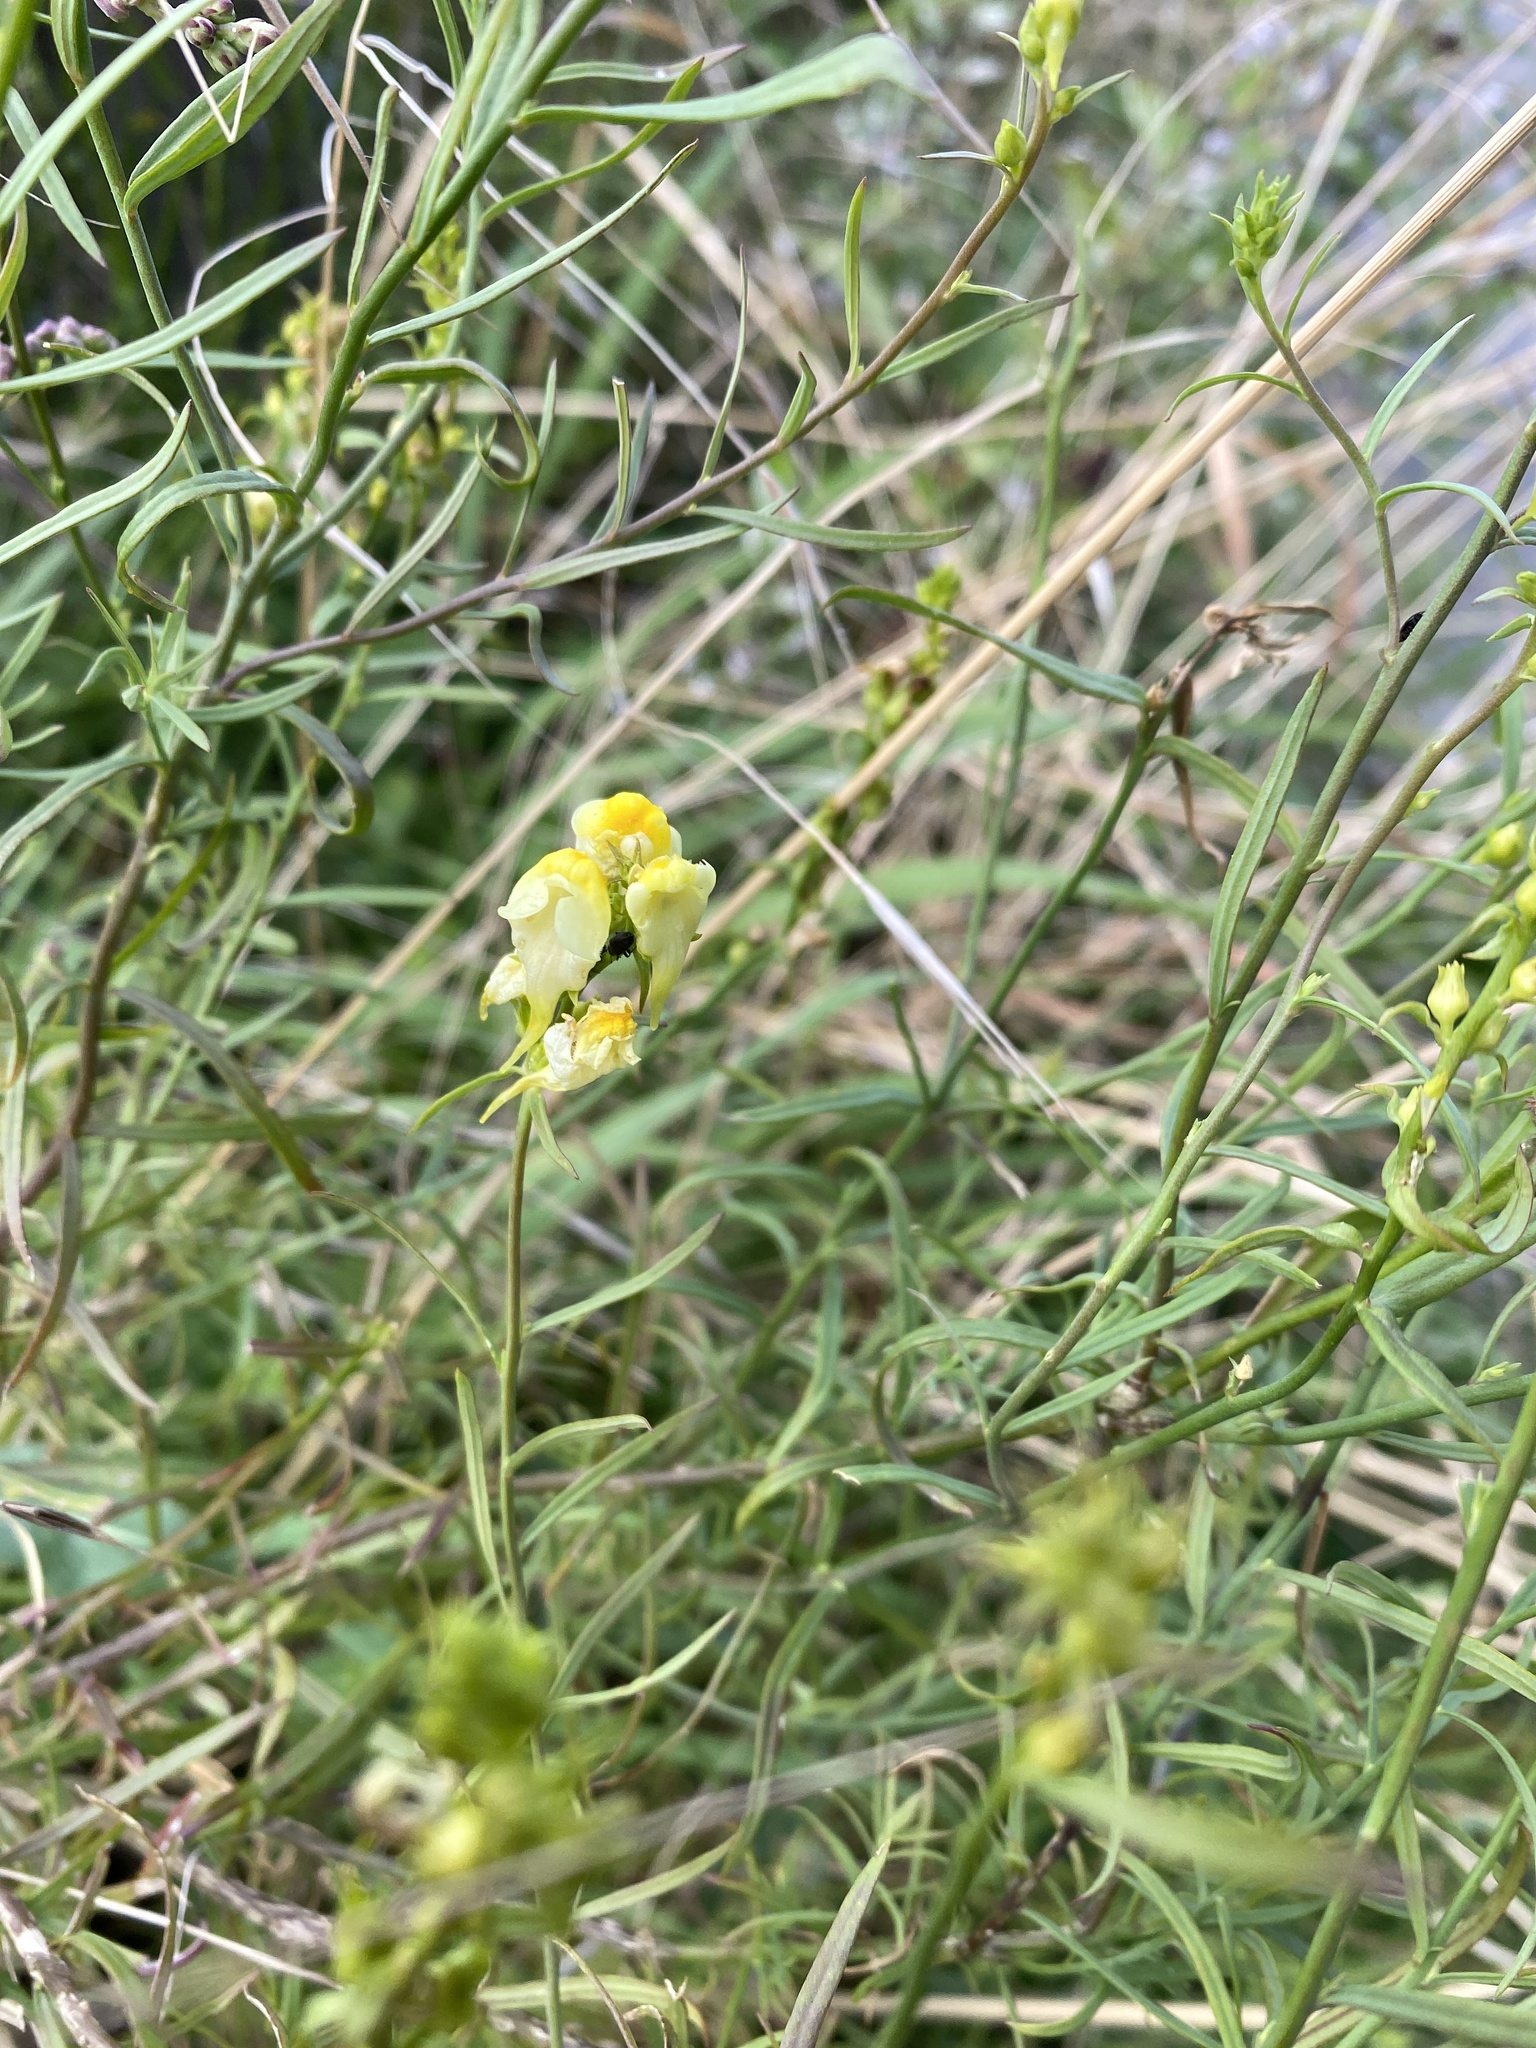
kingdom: Plantae
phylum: Tracheophyta
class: Magnoliopsida
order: Lamiales
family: Plantaginaceae
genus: Linaria
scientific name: Linaria vulgaris
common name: Butter and eggs
